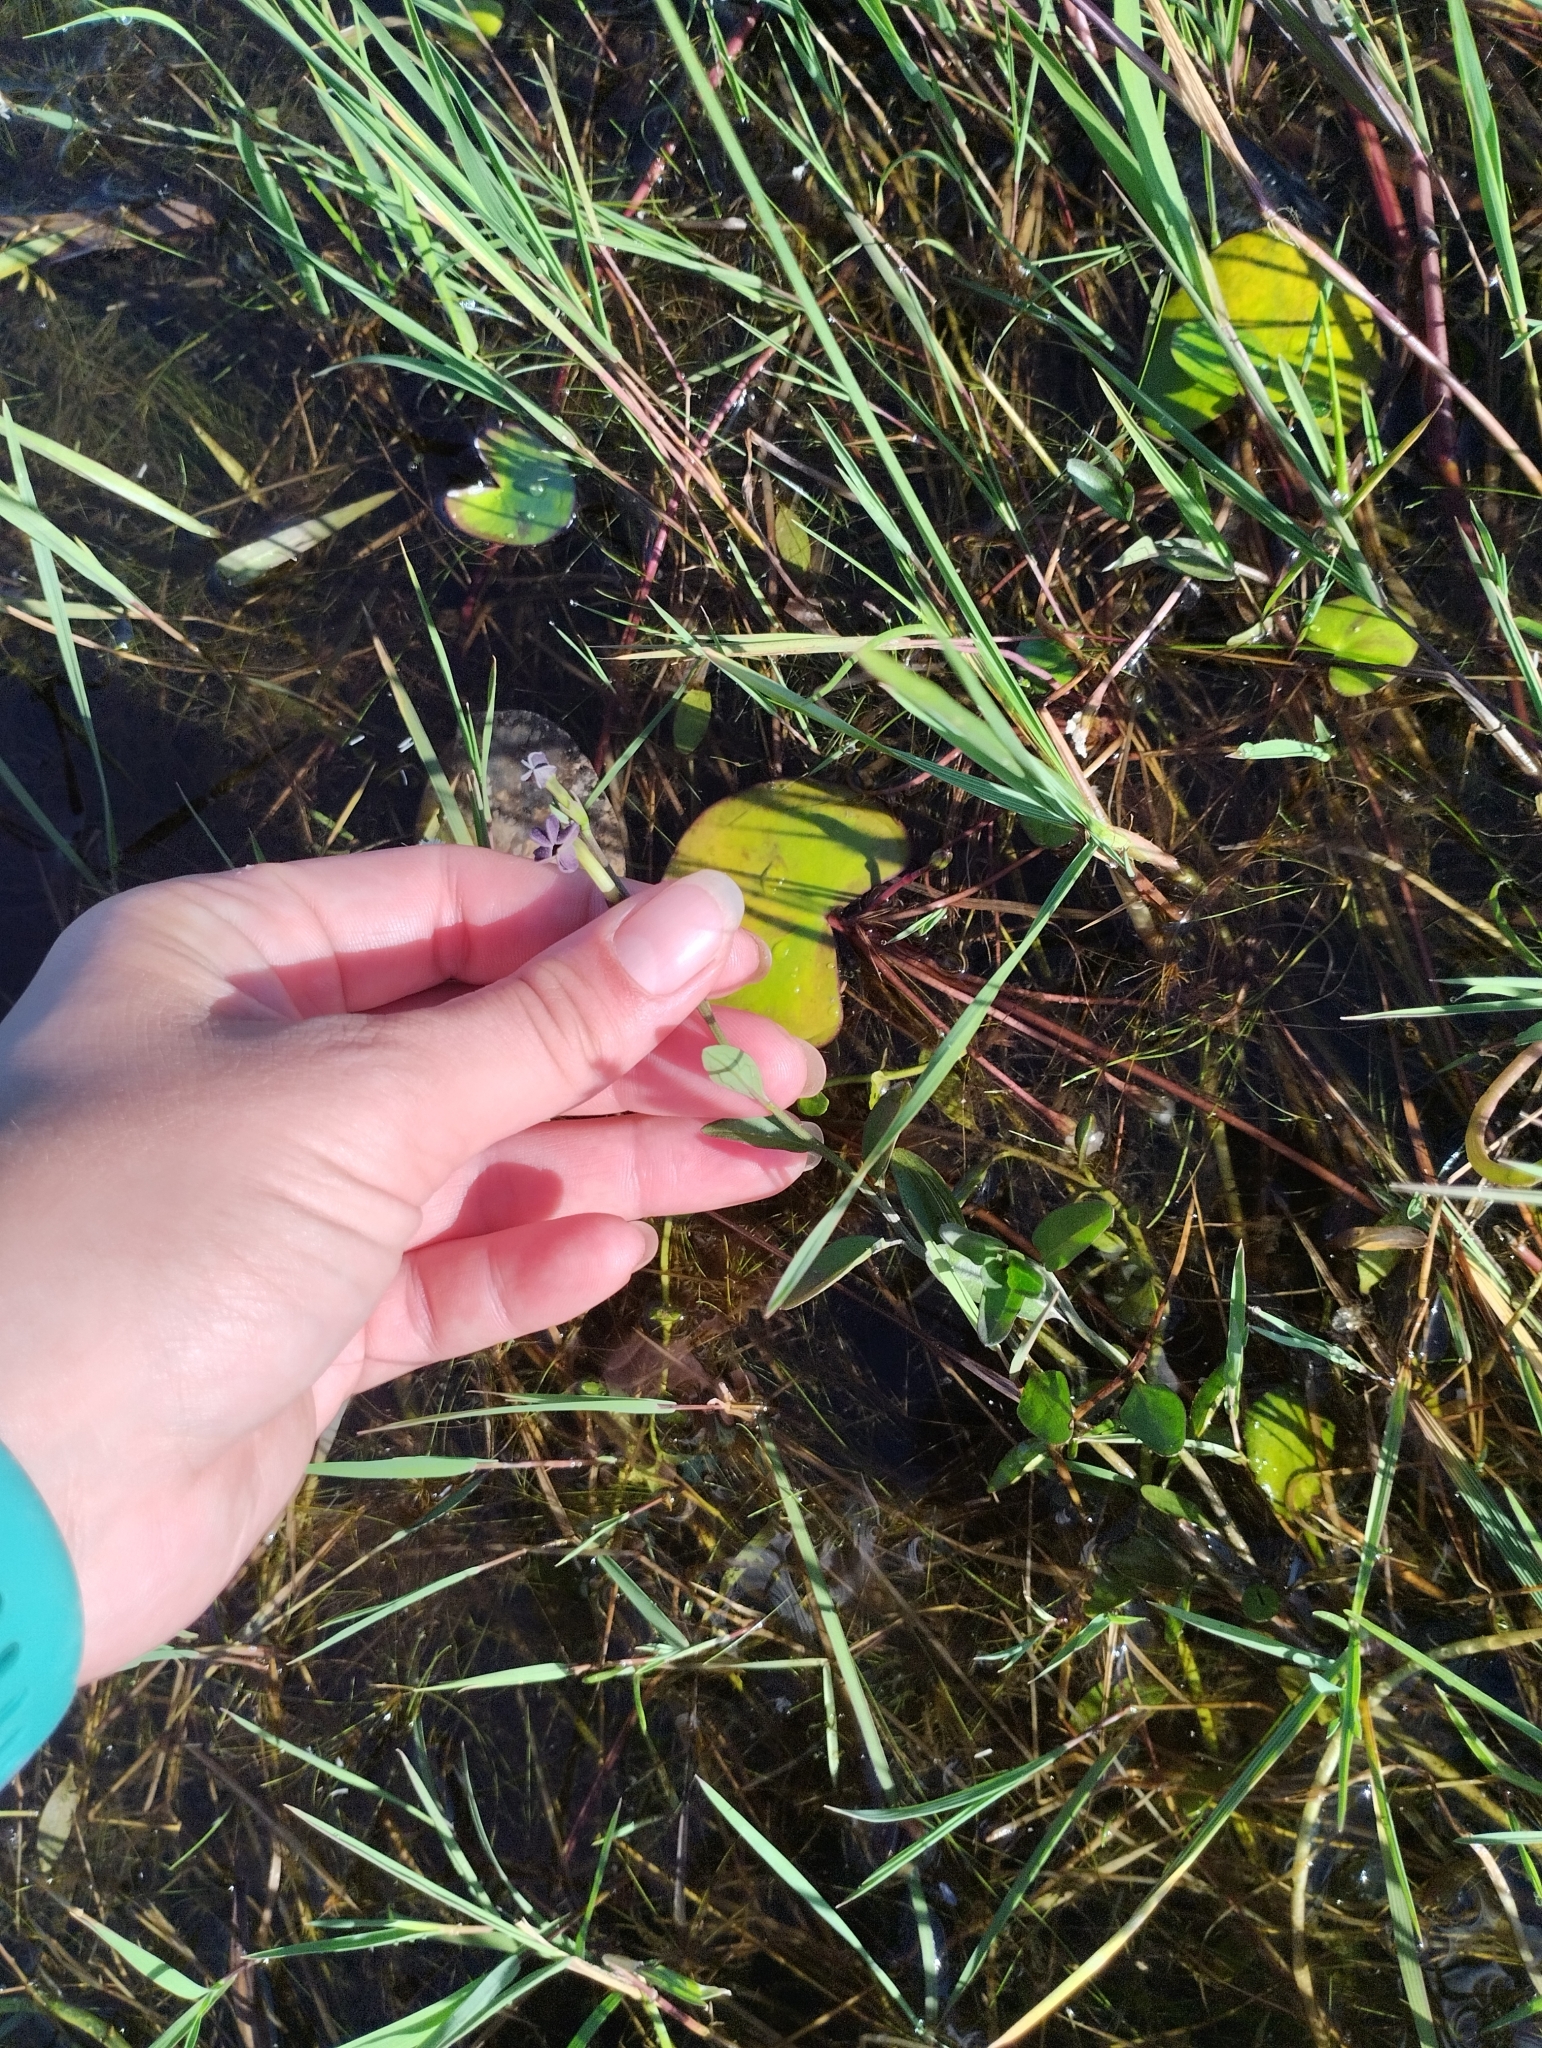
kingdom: Plantae
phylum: Tracheophyta
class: Magnoliopsida
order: Solanales
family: Solanaceae
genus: Schwenckia
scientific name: Schwenckia curviflora
